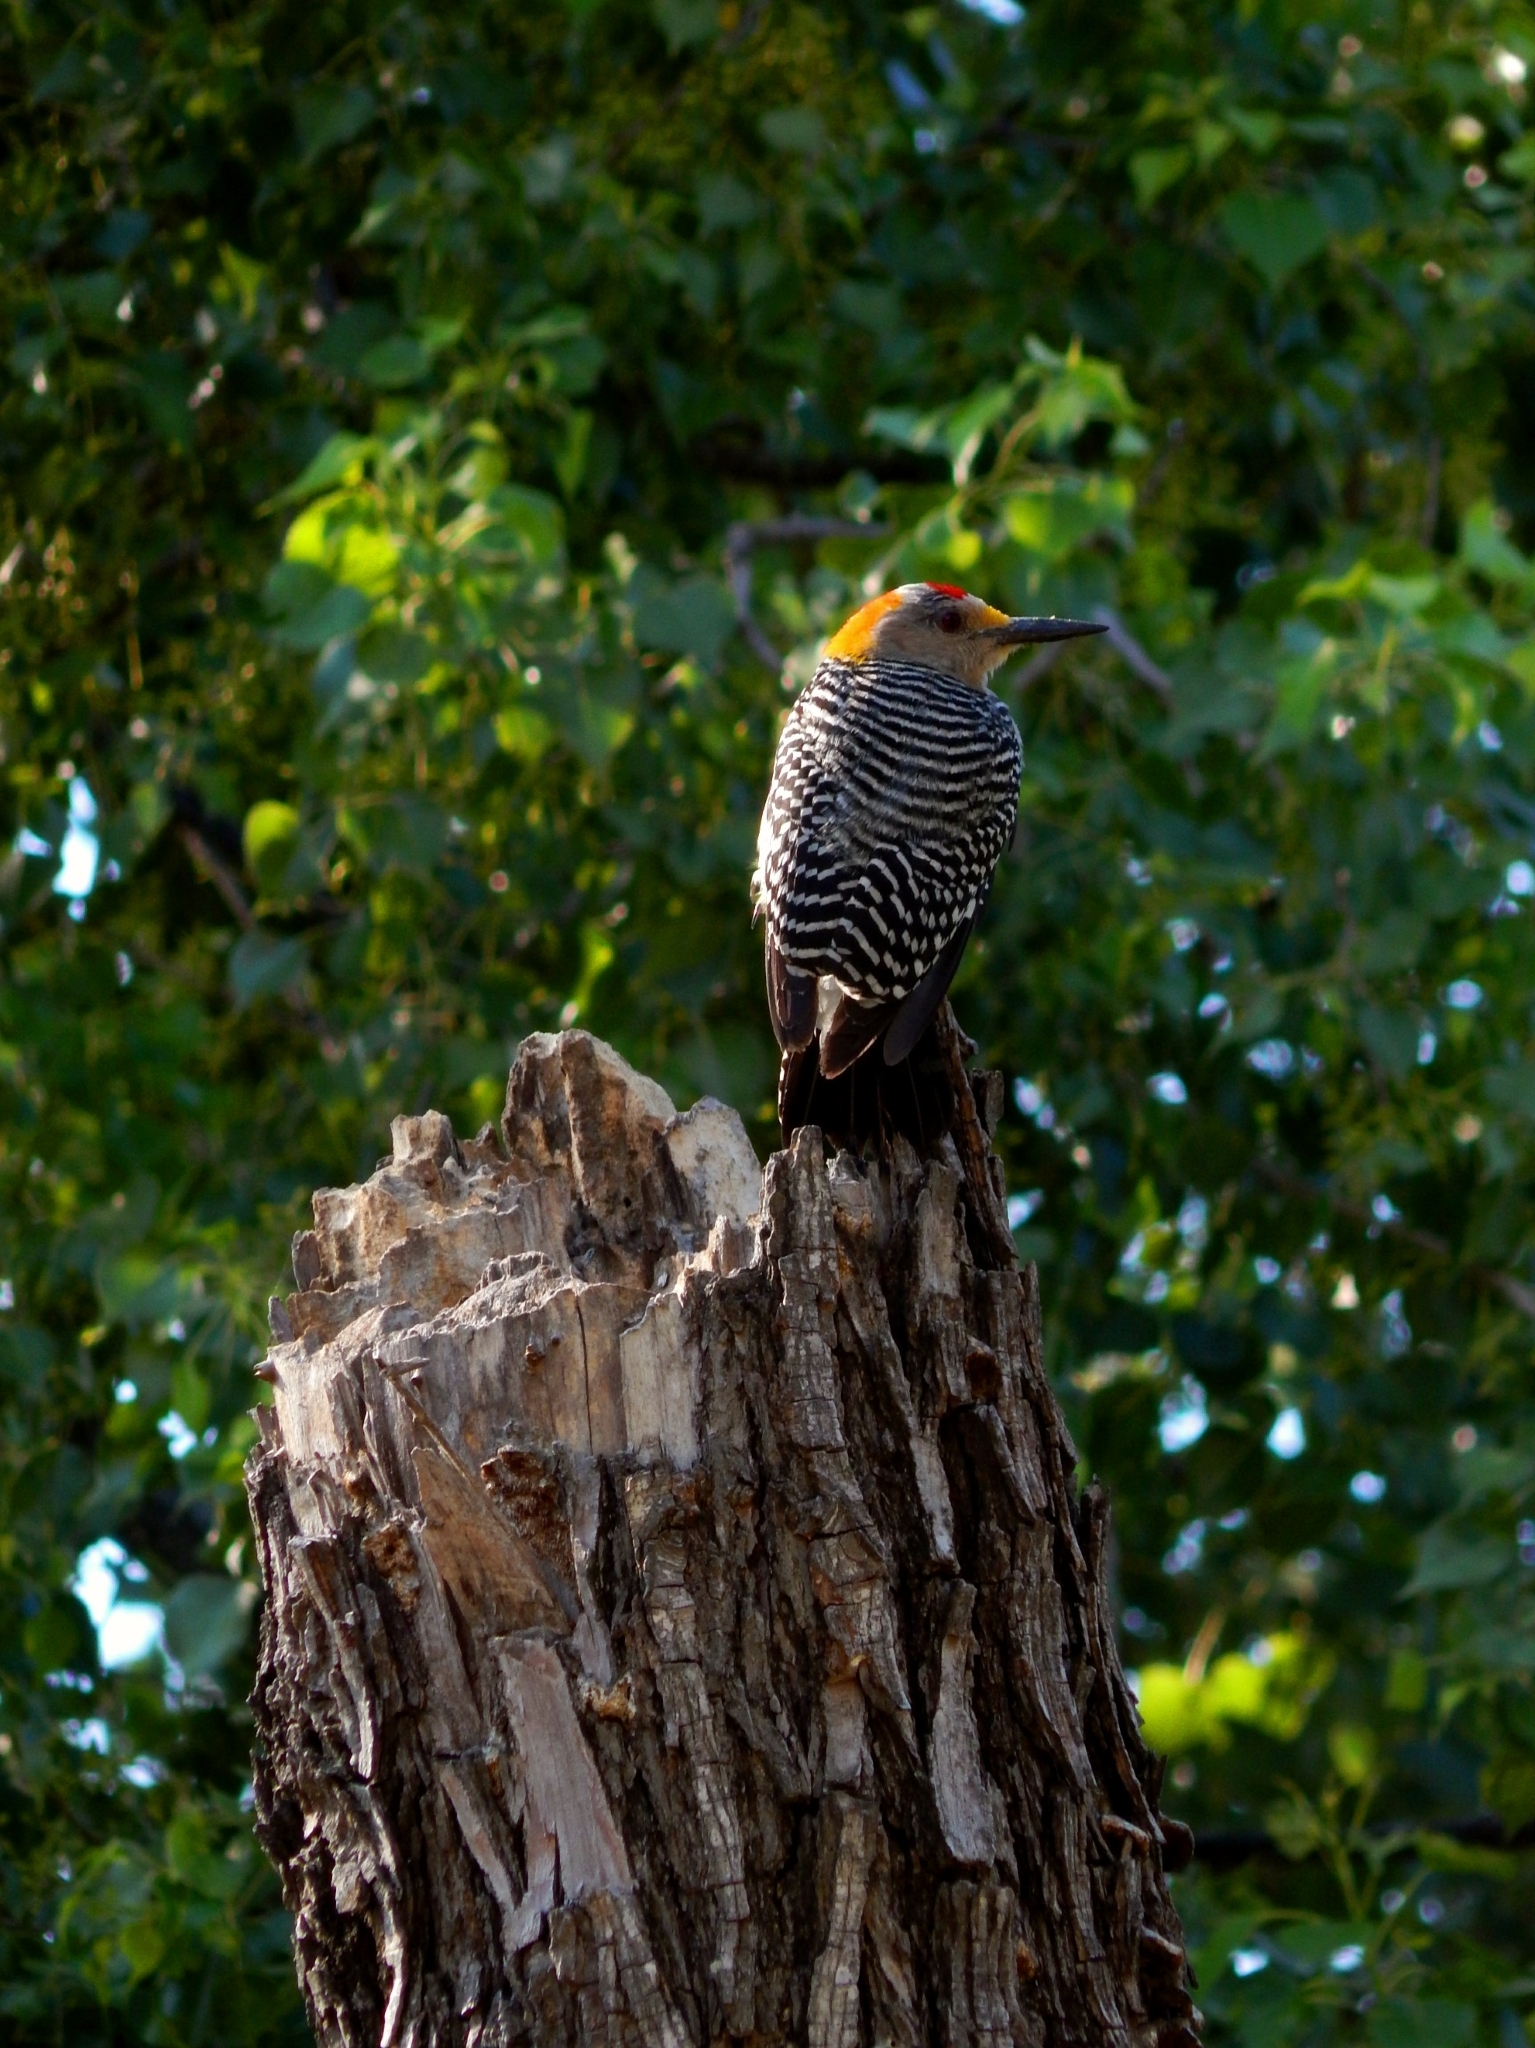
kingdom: Animalia
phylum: Chordata
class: Aves
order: Piciformes
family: Picidae
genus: Melanerpes
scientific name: Melanerpes aurifrons
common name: Golden-fronted woodpecker
